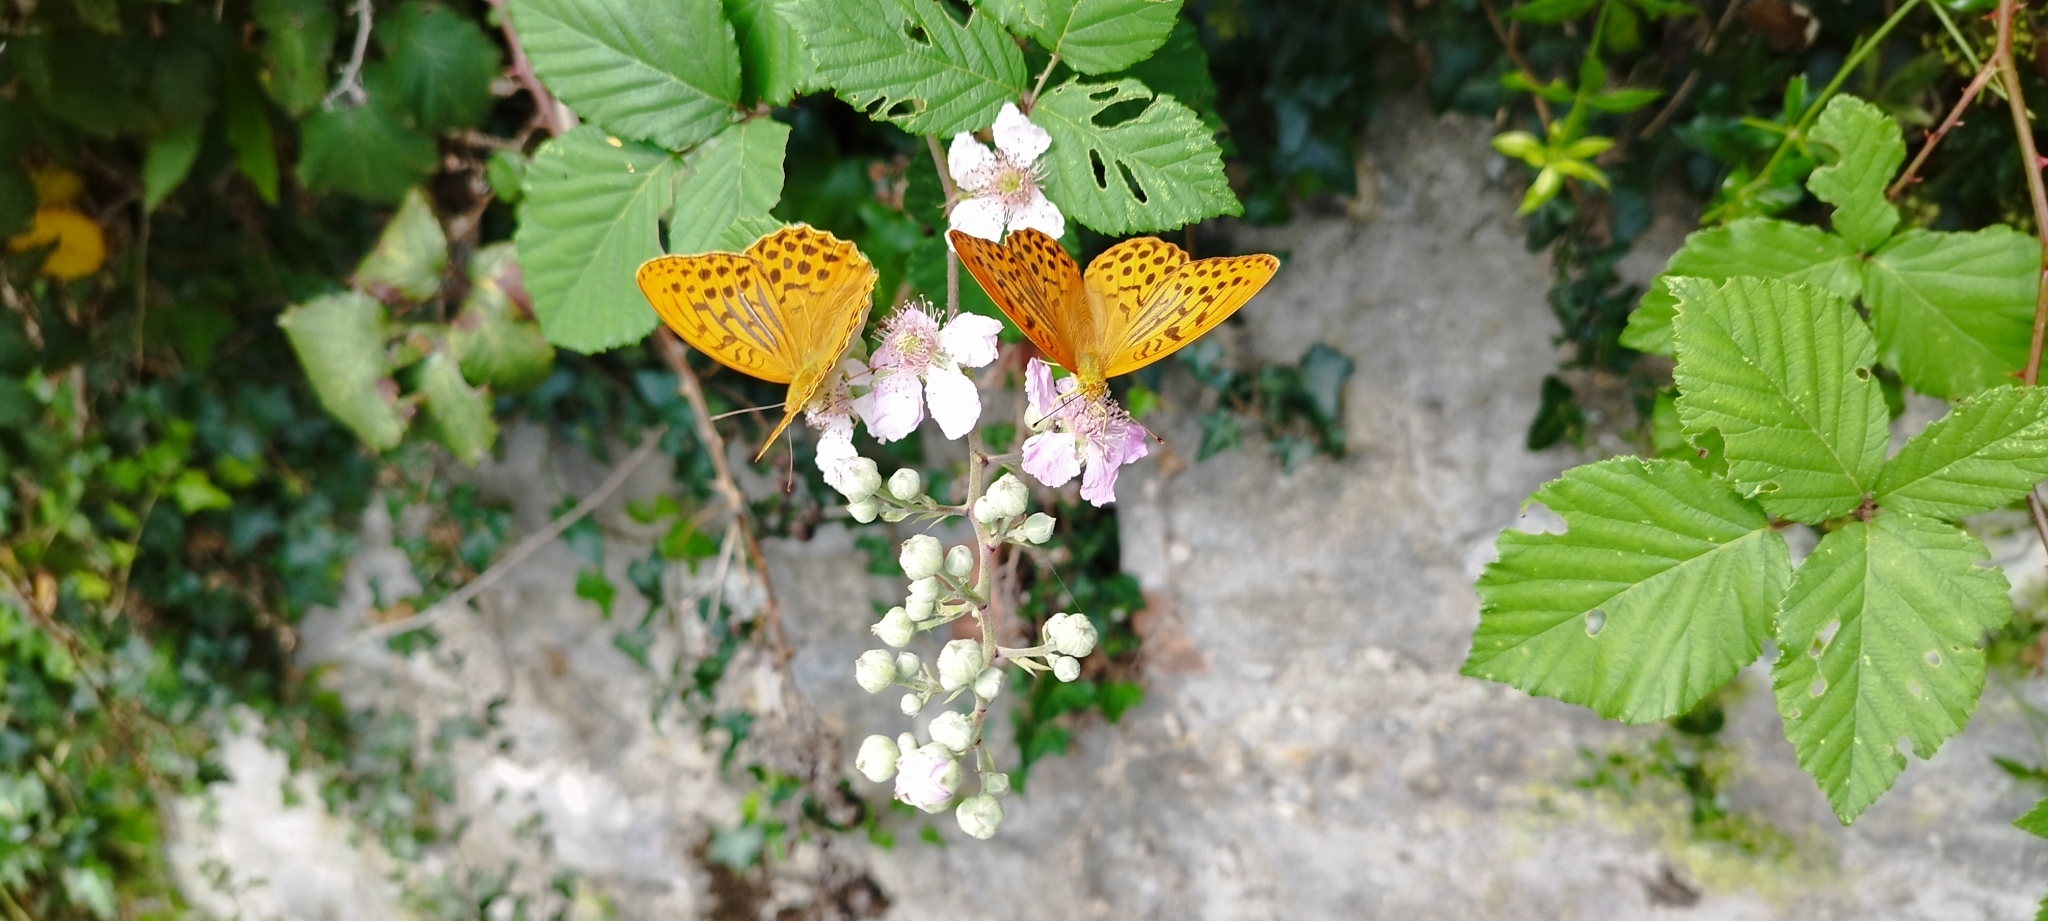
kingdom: Animalia
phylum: Arthropoda
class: Insecta
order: Lepidoptera
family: Nymphalidae
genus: Argynnis
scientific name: Argynnis paphia
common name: Silver-washed fritillary
